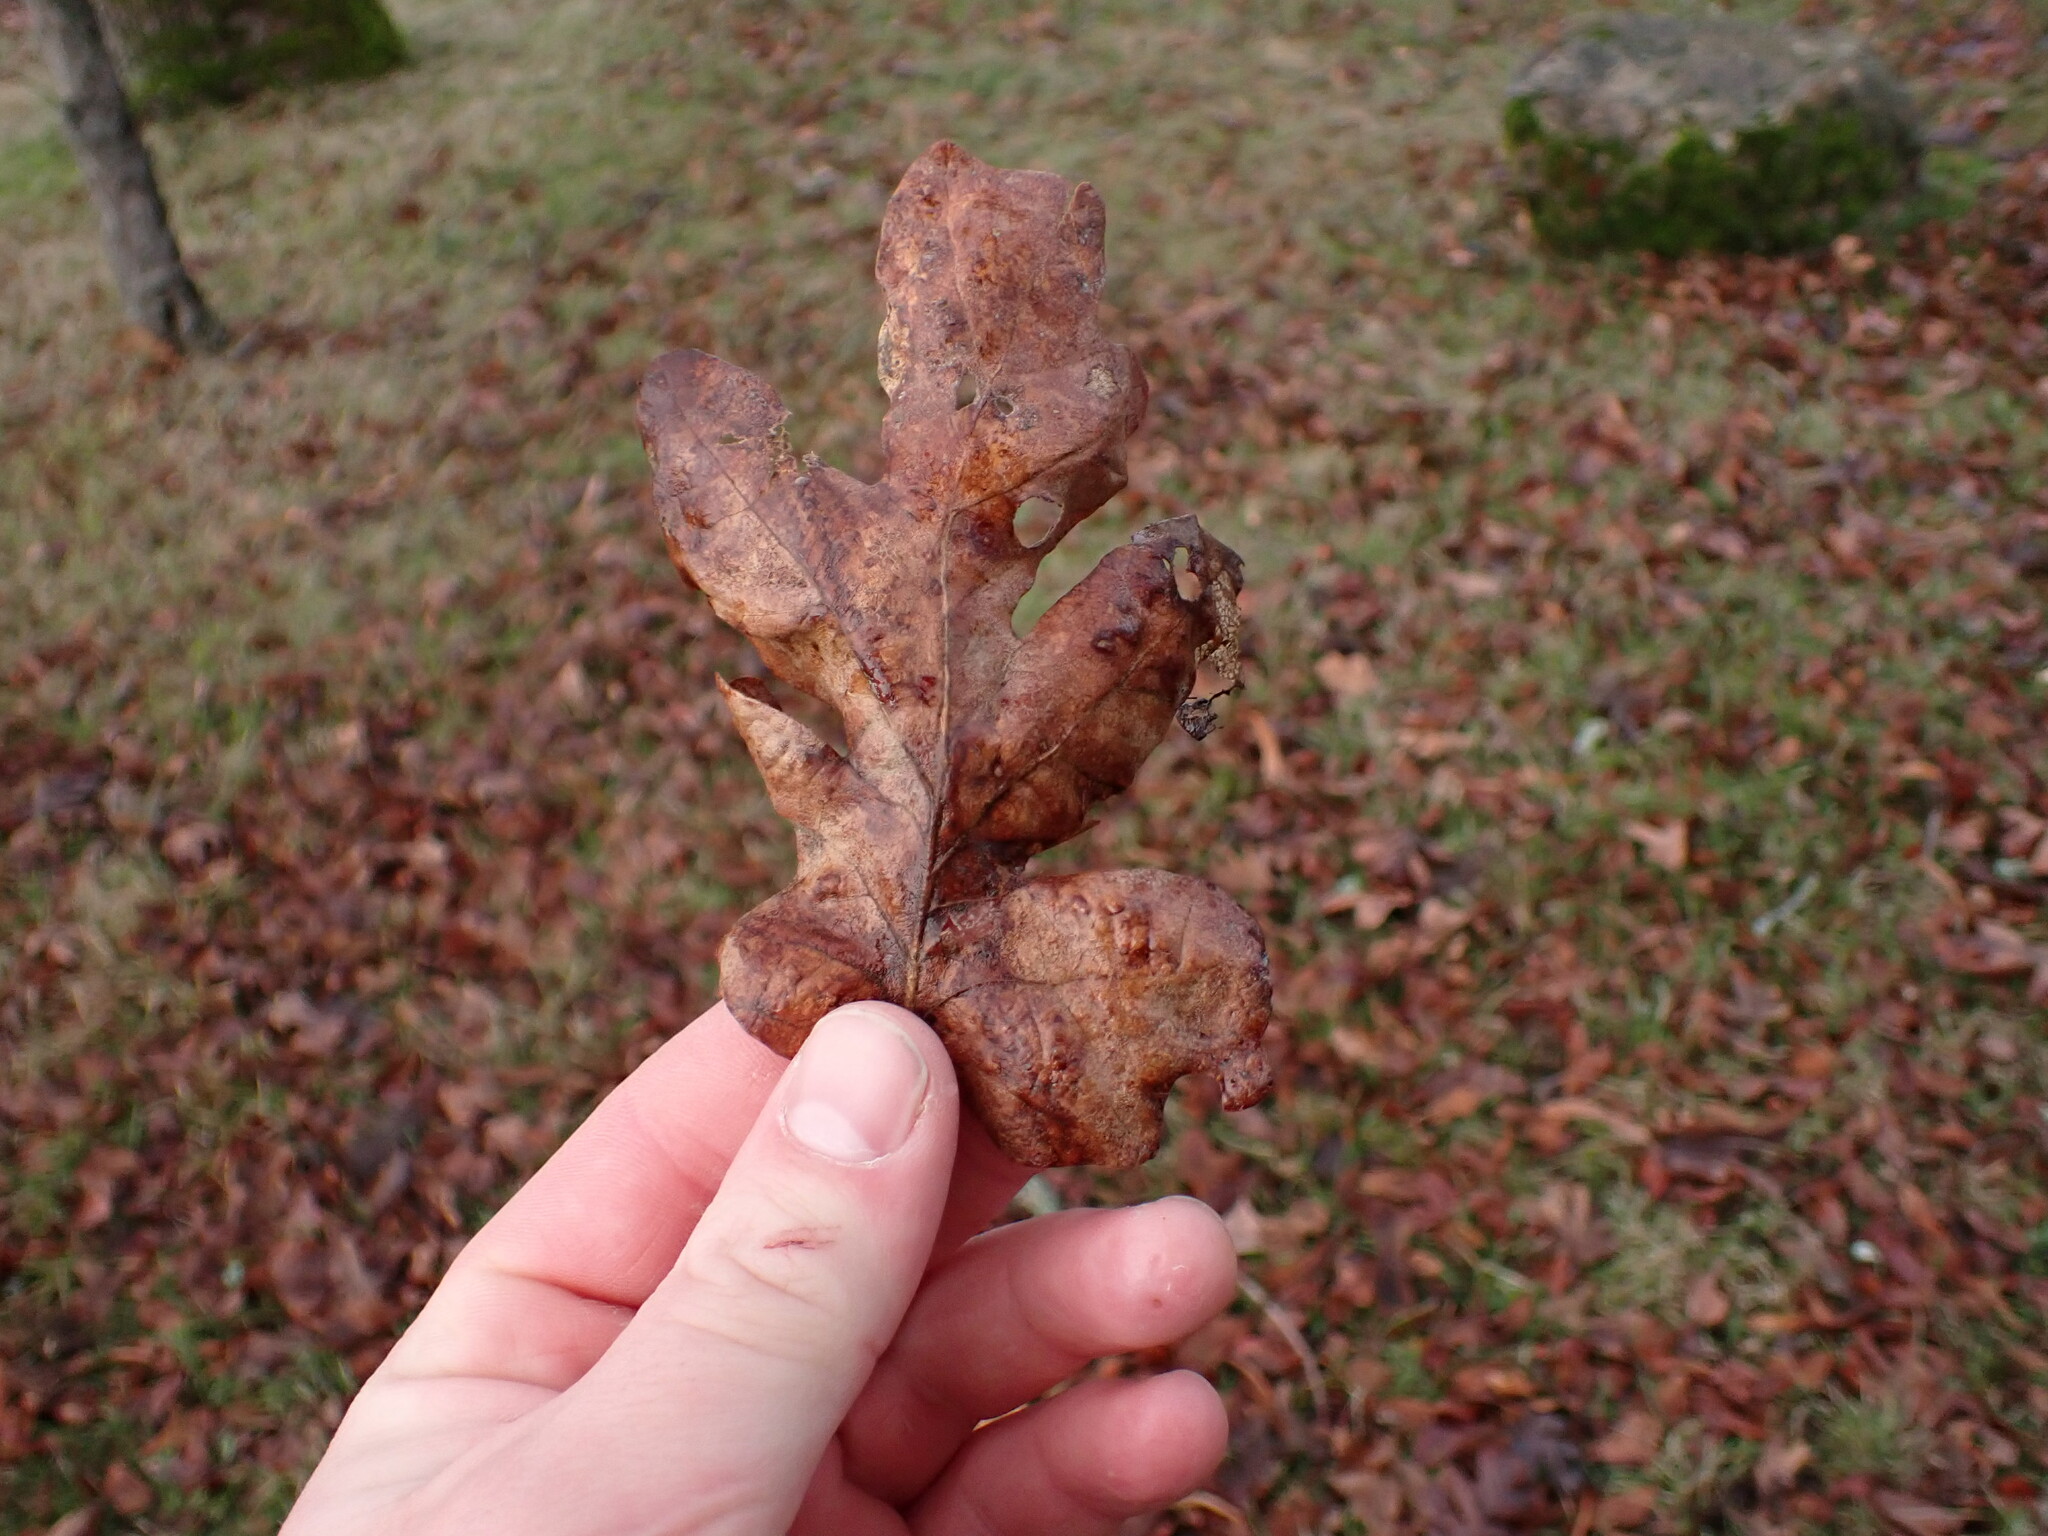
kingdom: Plantae
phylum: Tracheophyta
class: Magnoliopsida
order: Fagales
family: Fagaceae
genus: Quercus
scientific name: Quercus garryana
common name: Garry oak
